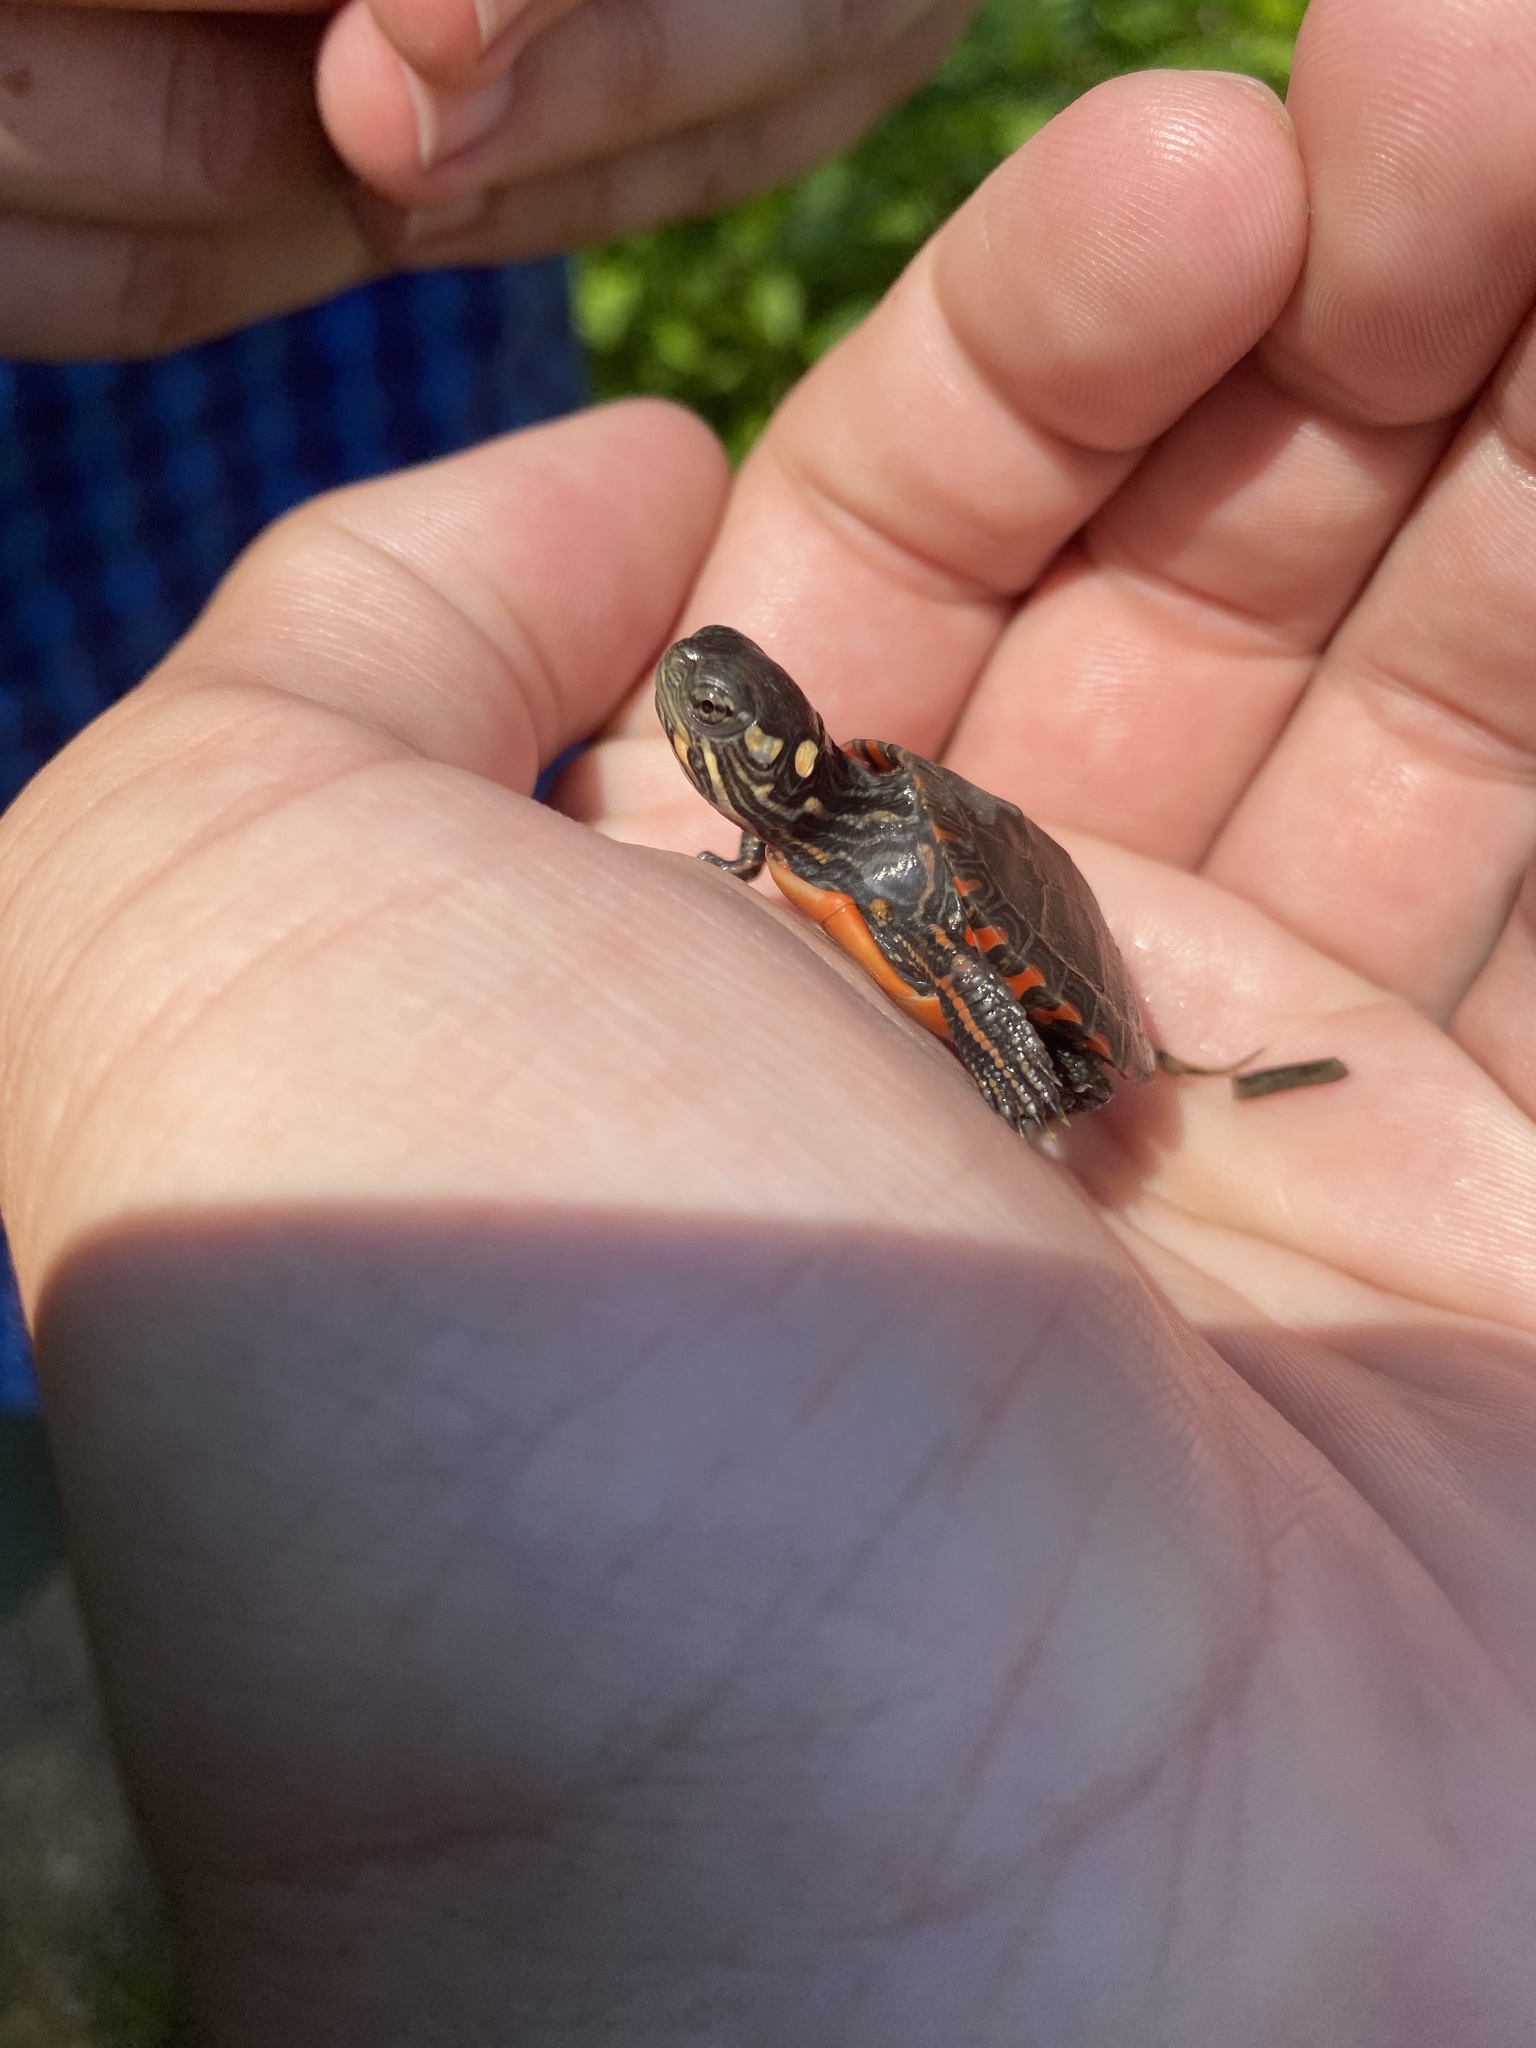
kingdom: Animalia
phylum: Chordata
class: Testudines
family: Emydidae
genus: Chrysemys
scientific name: Chrysemys picta
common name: Painted turtle
